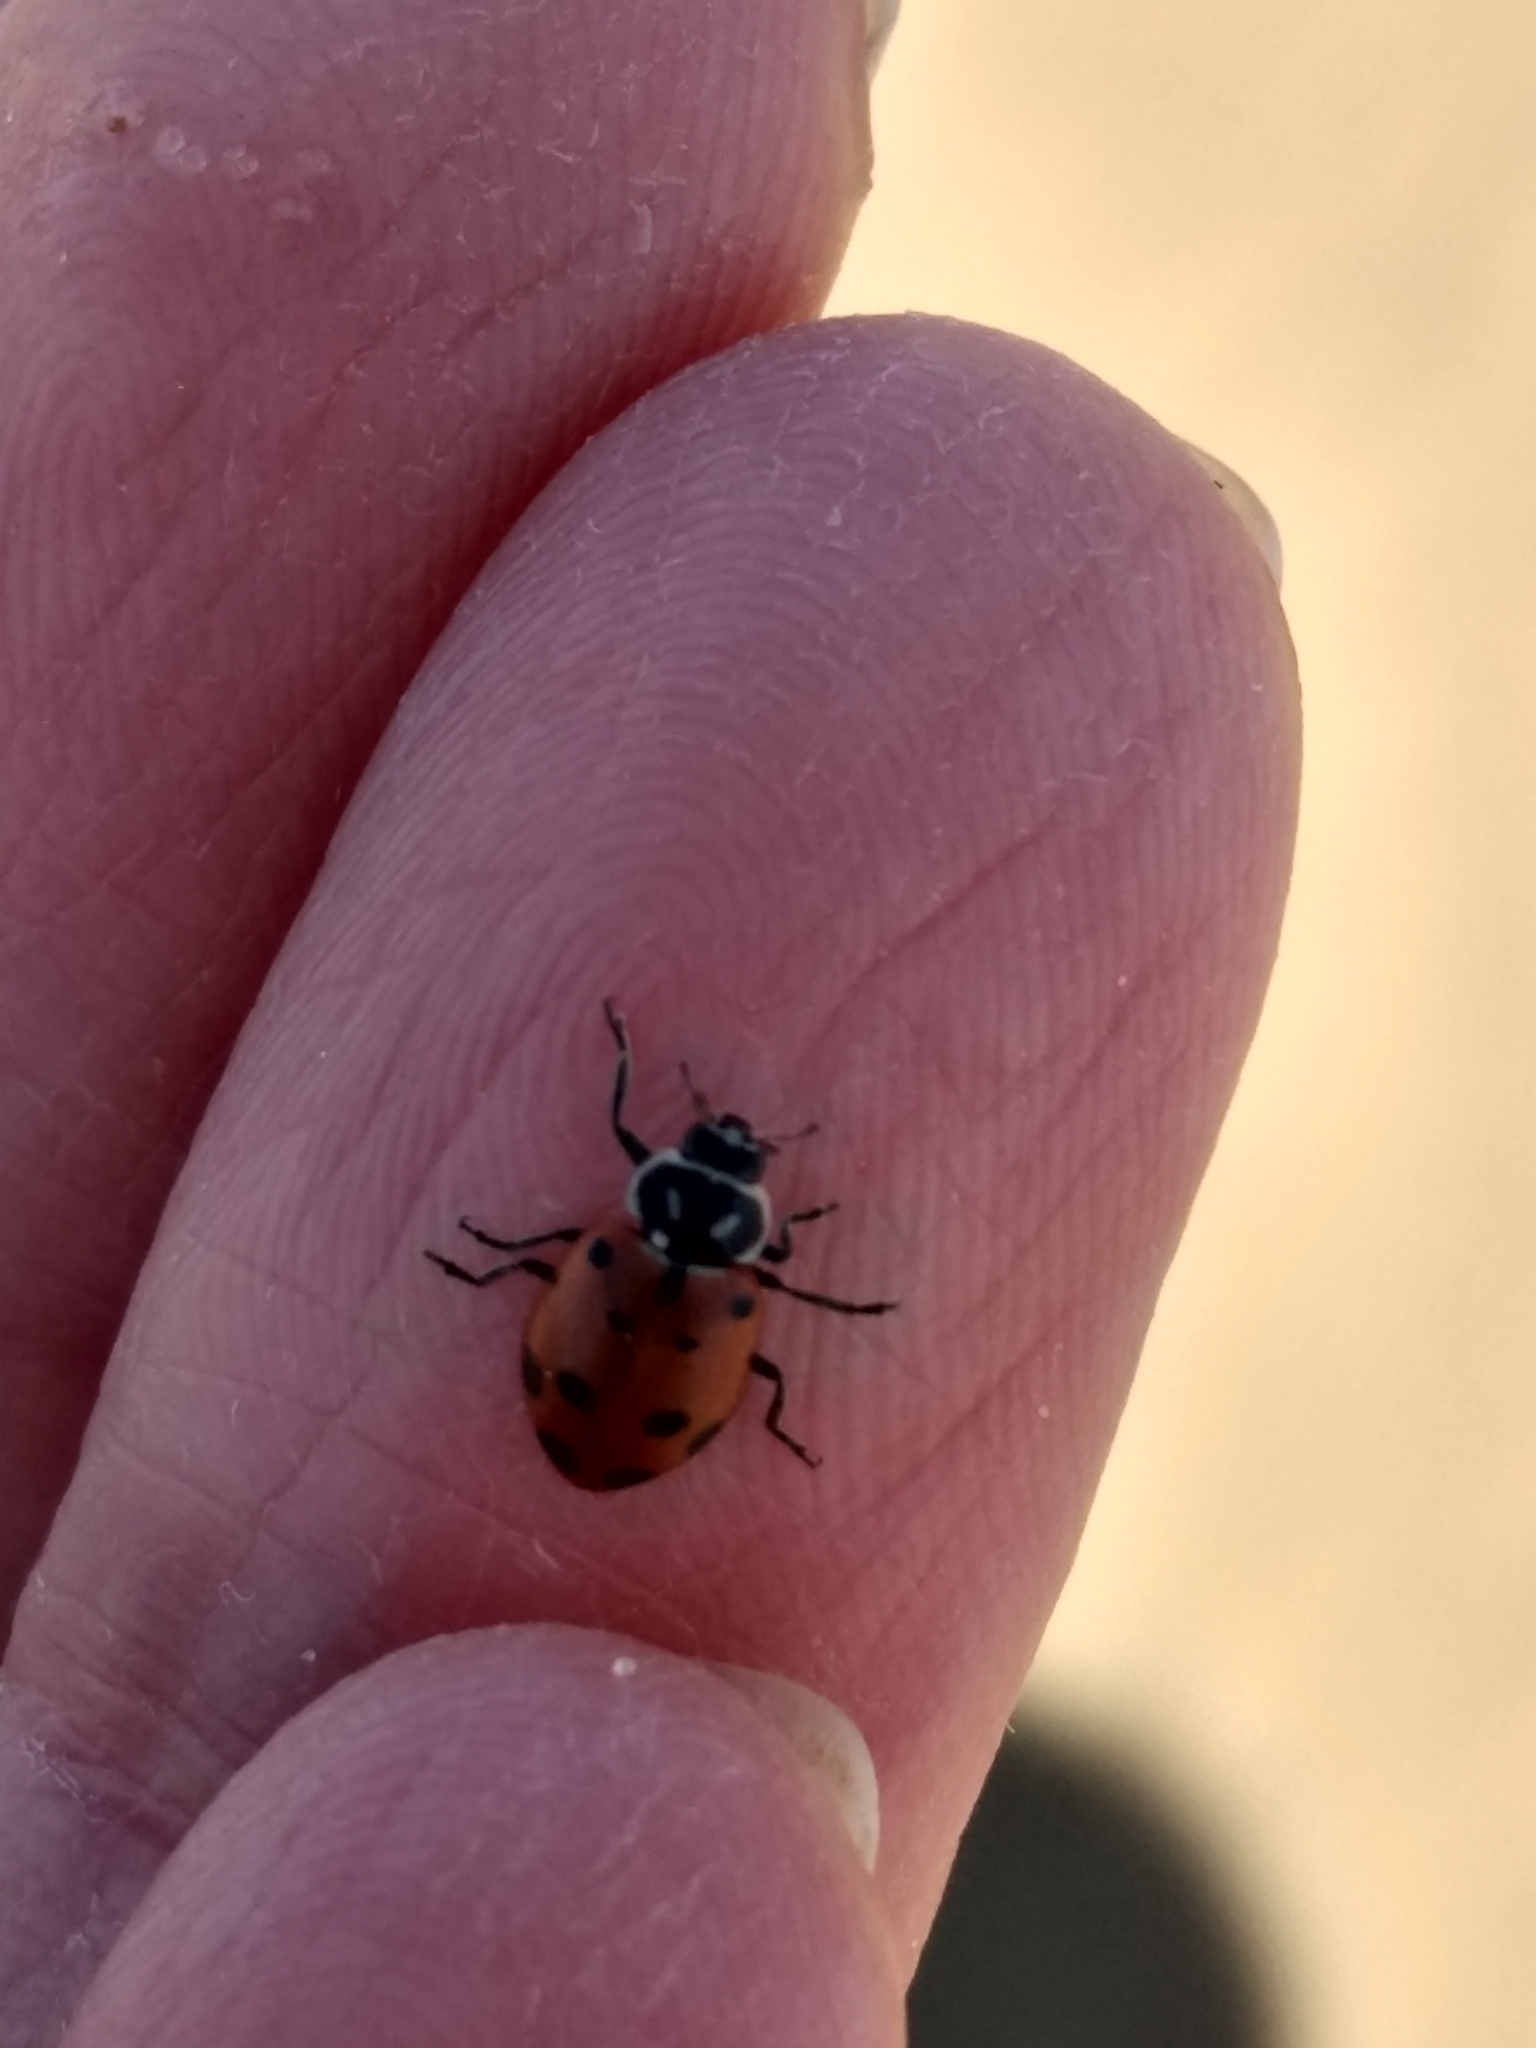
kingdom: Animalia
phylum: Arthropoda
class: Insecta
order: Coleoptera
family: Coccinellidae
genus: Hippodamia
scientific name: Hippodamia convergens
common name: Convergent lady beetle
